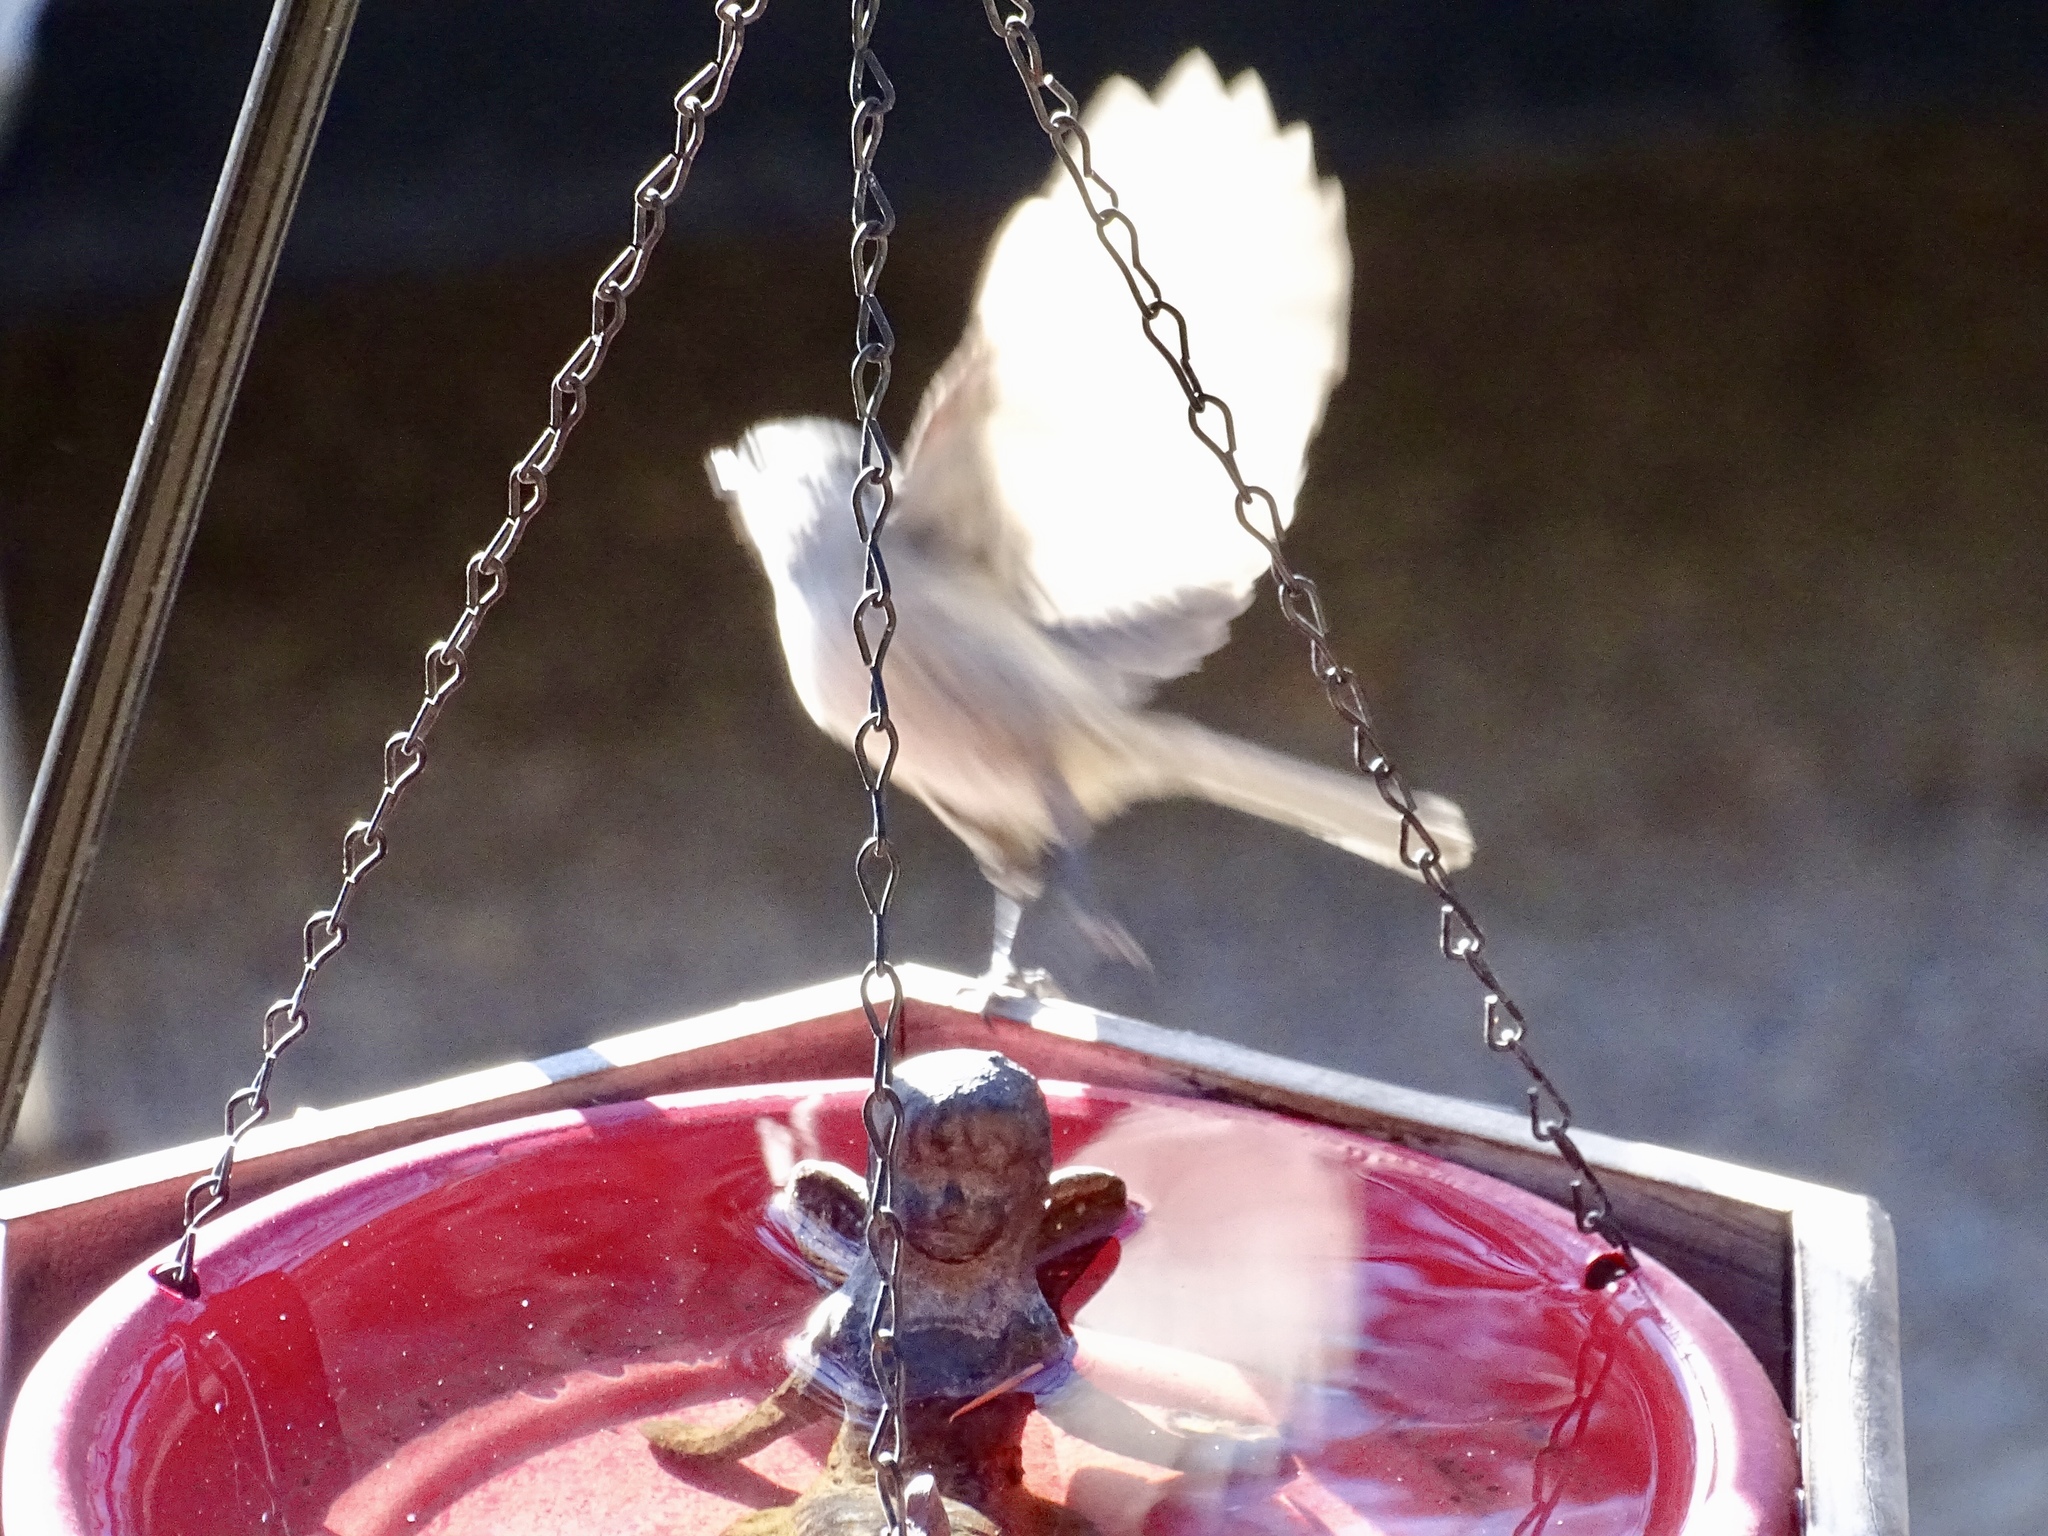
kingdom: Animalia
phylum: Chordata
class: Aves
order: Passeriformes
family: Paridae
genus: Poecile
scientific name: Poecile gambeli
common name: Mountain chickadee
